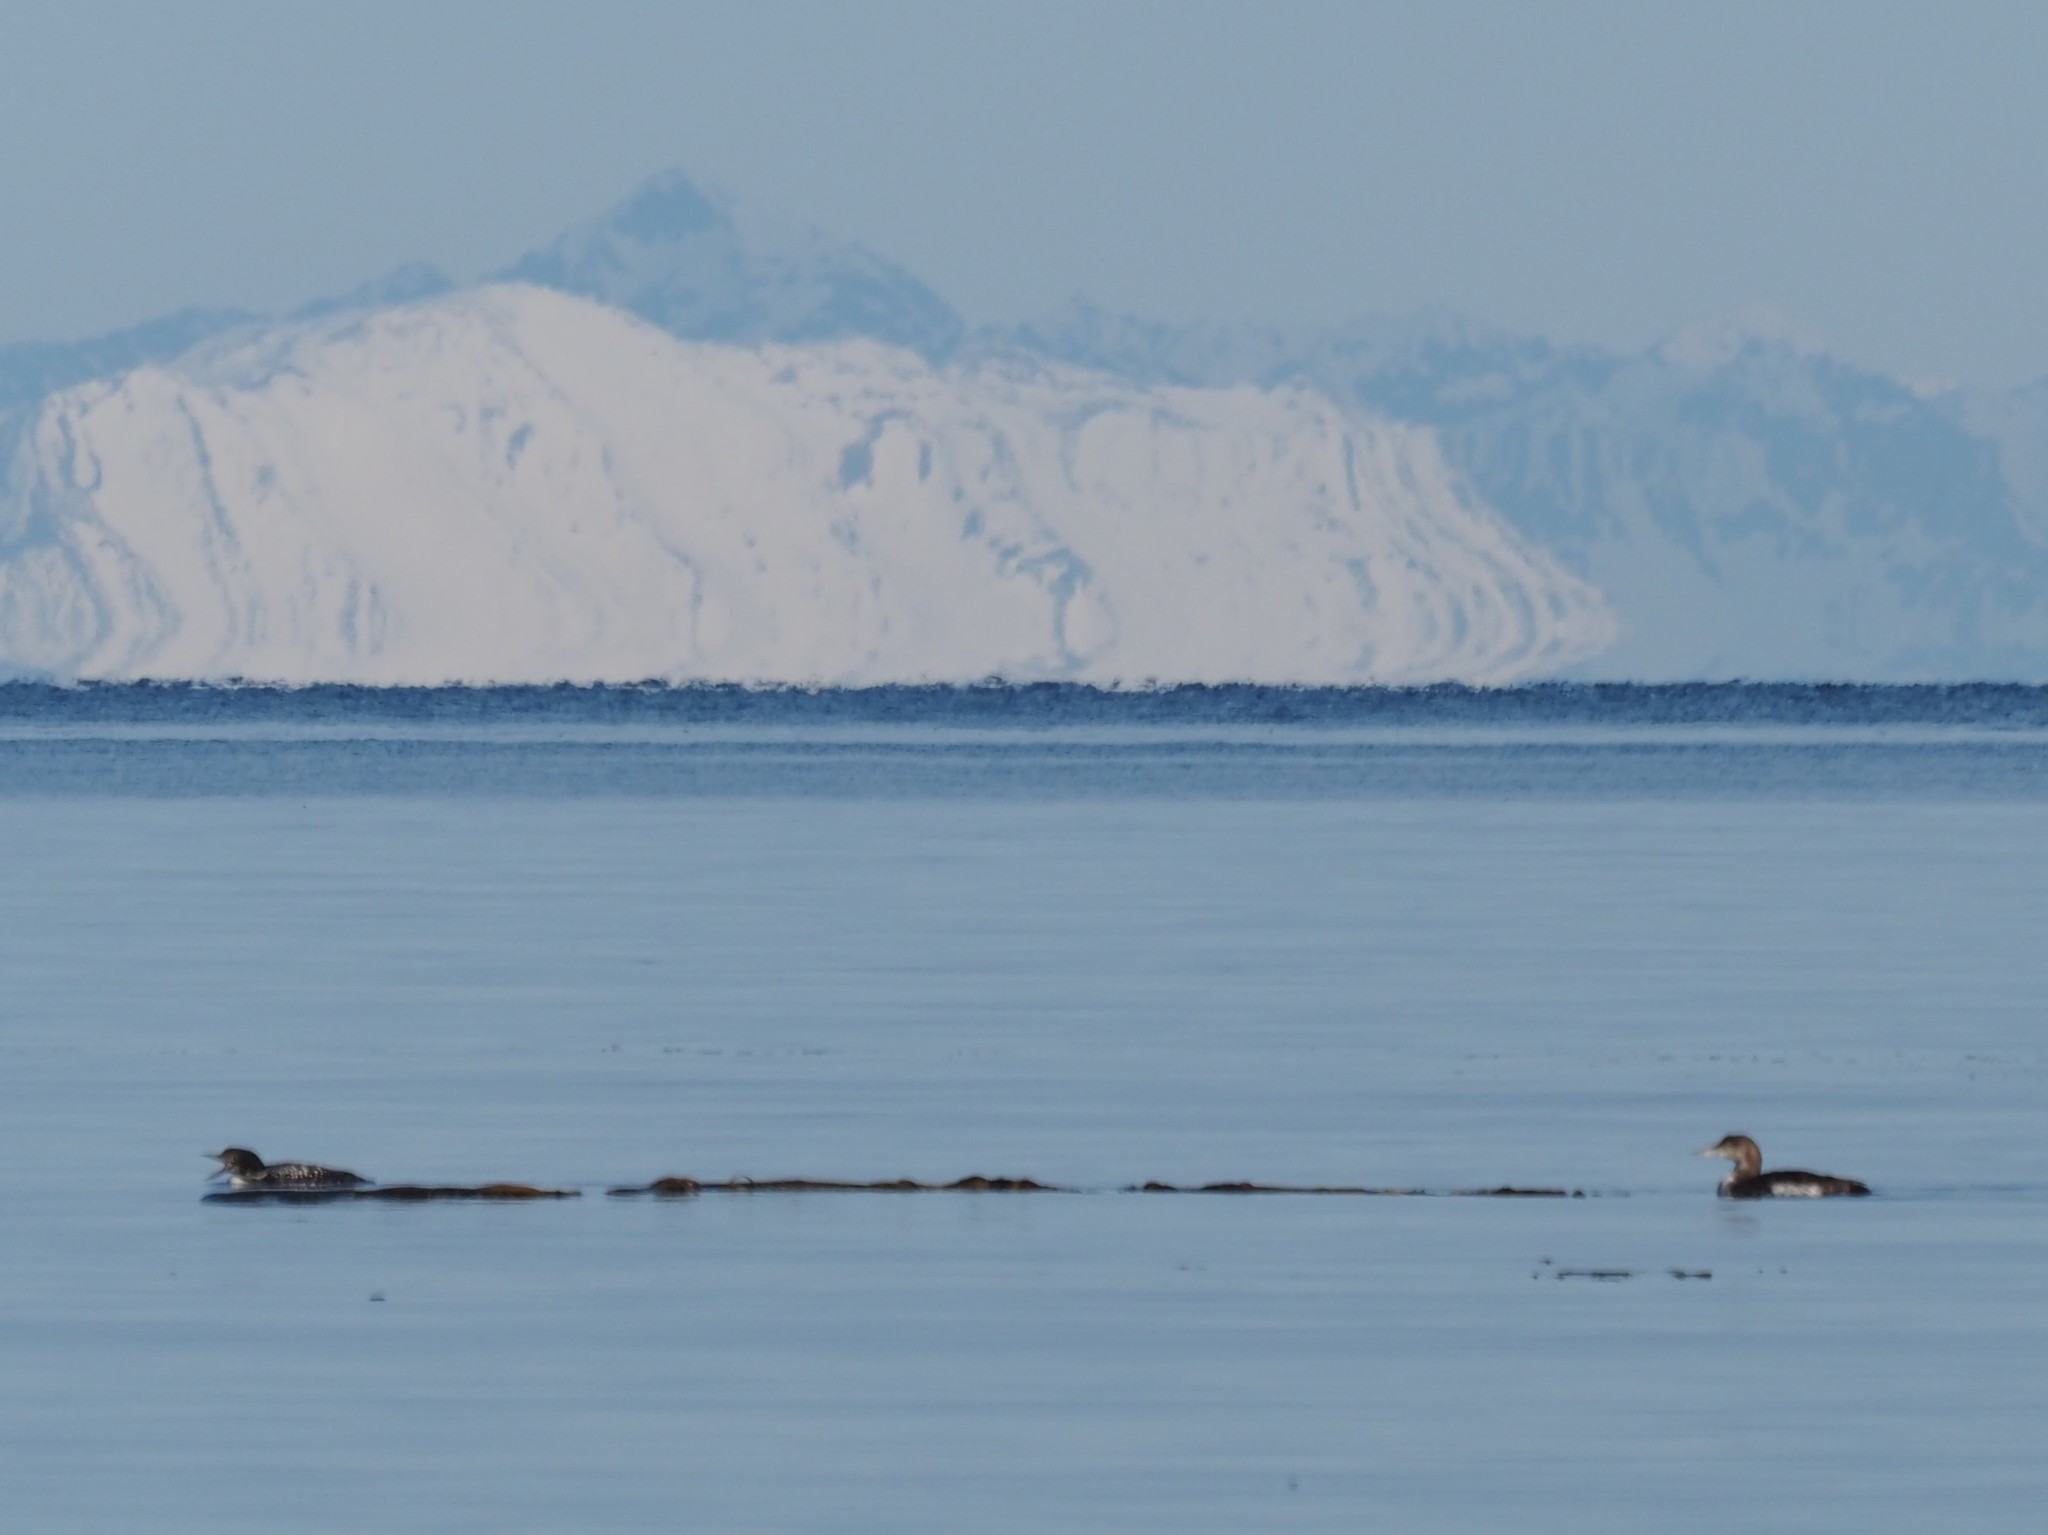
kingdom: Animalia
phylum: Chordata
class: Aves
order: Gaviiformes
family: Gaviidae
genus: Gavia
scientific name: Gavia immer
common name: Common loon
